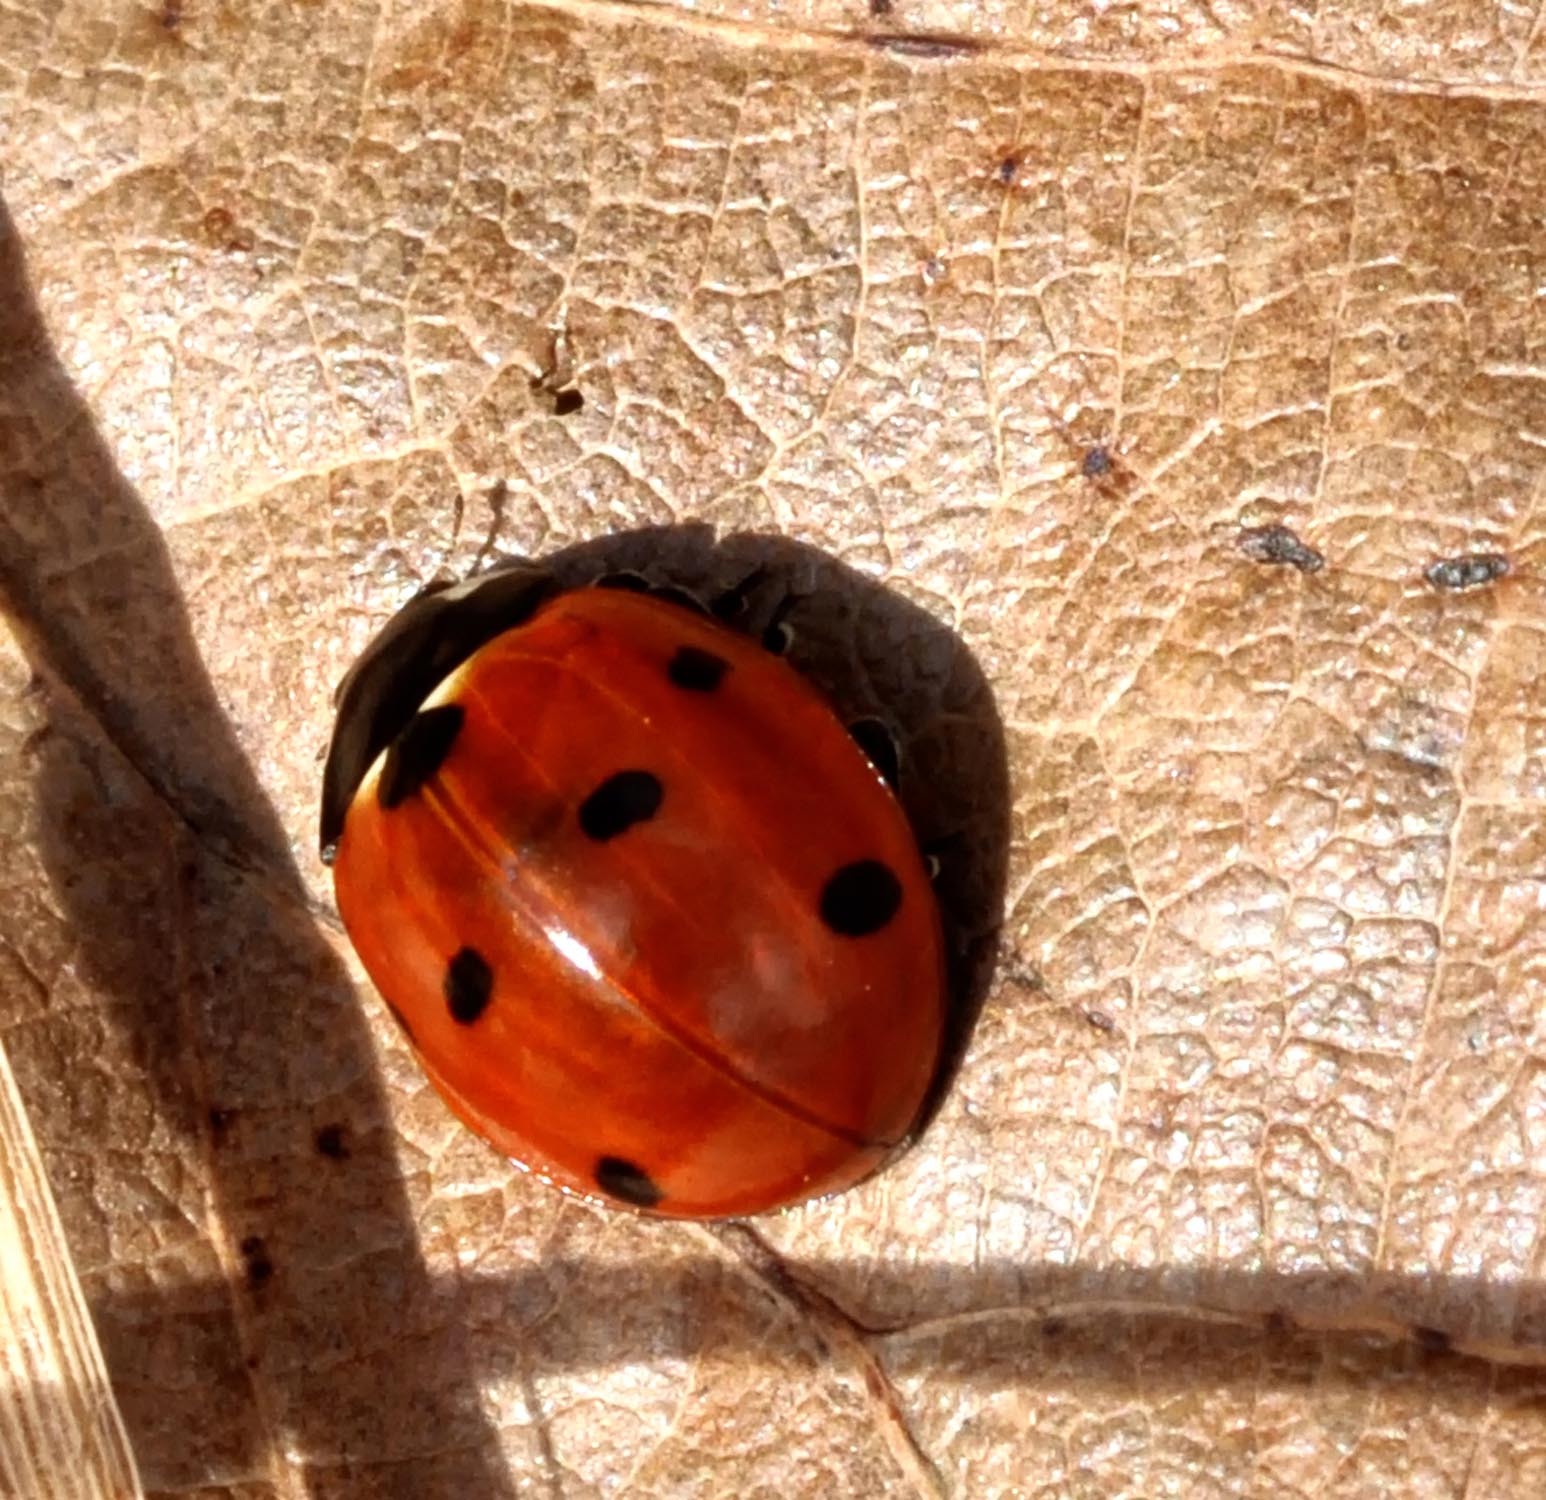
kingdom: Animalia
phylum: Arthropoda
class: Insecta
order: Coleoptera
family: Coccinellidae
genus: Coccinella
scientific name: Coccinella septempunctata
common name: Sevenspotted lady beetle
